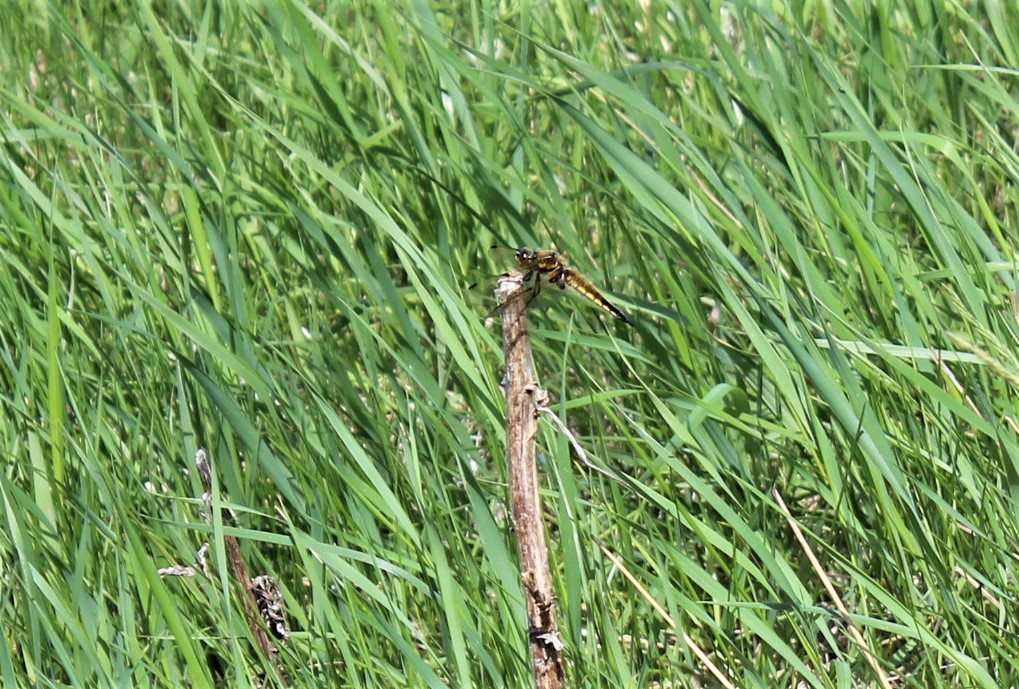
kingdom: Animalia
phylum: Arthropoda
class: Insecta
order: Odonata
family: Libellulidae
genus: Libellula
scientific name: Libellula quadrimaculata
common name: Four-spotted chaser
